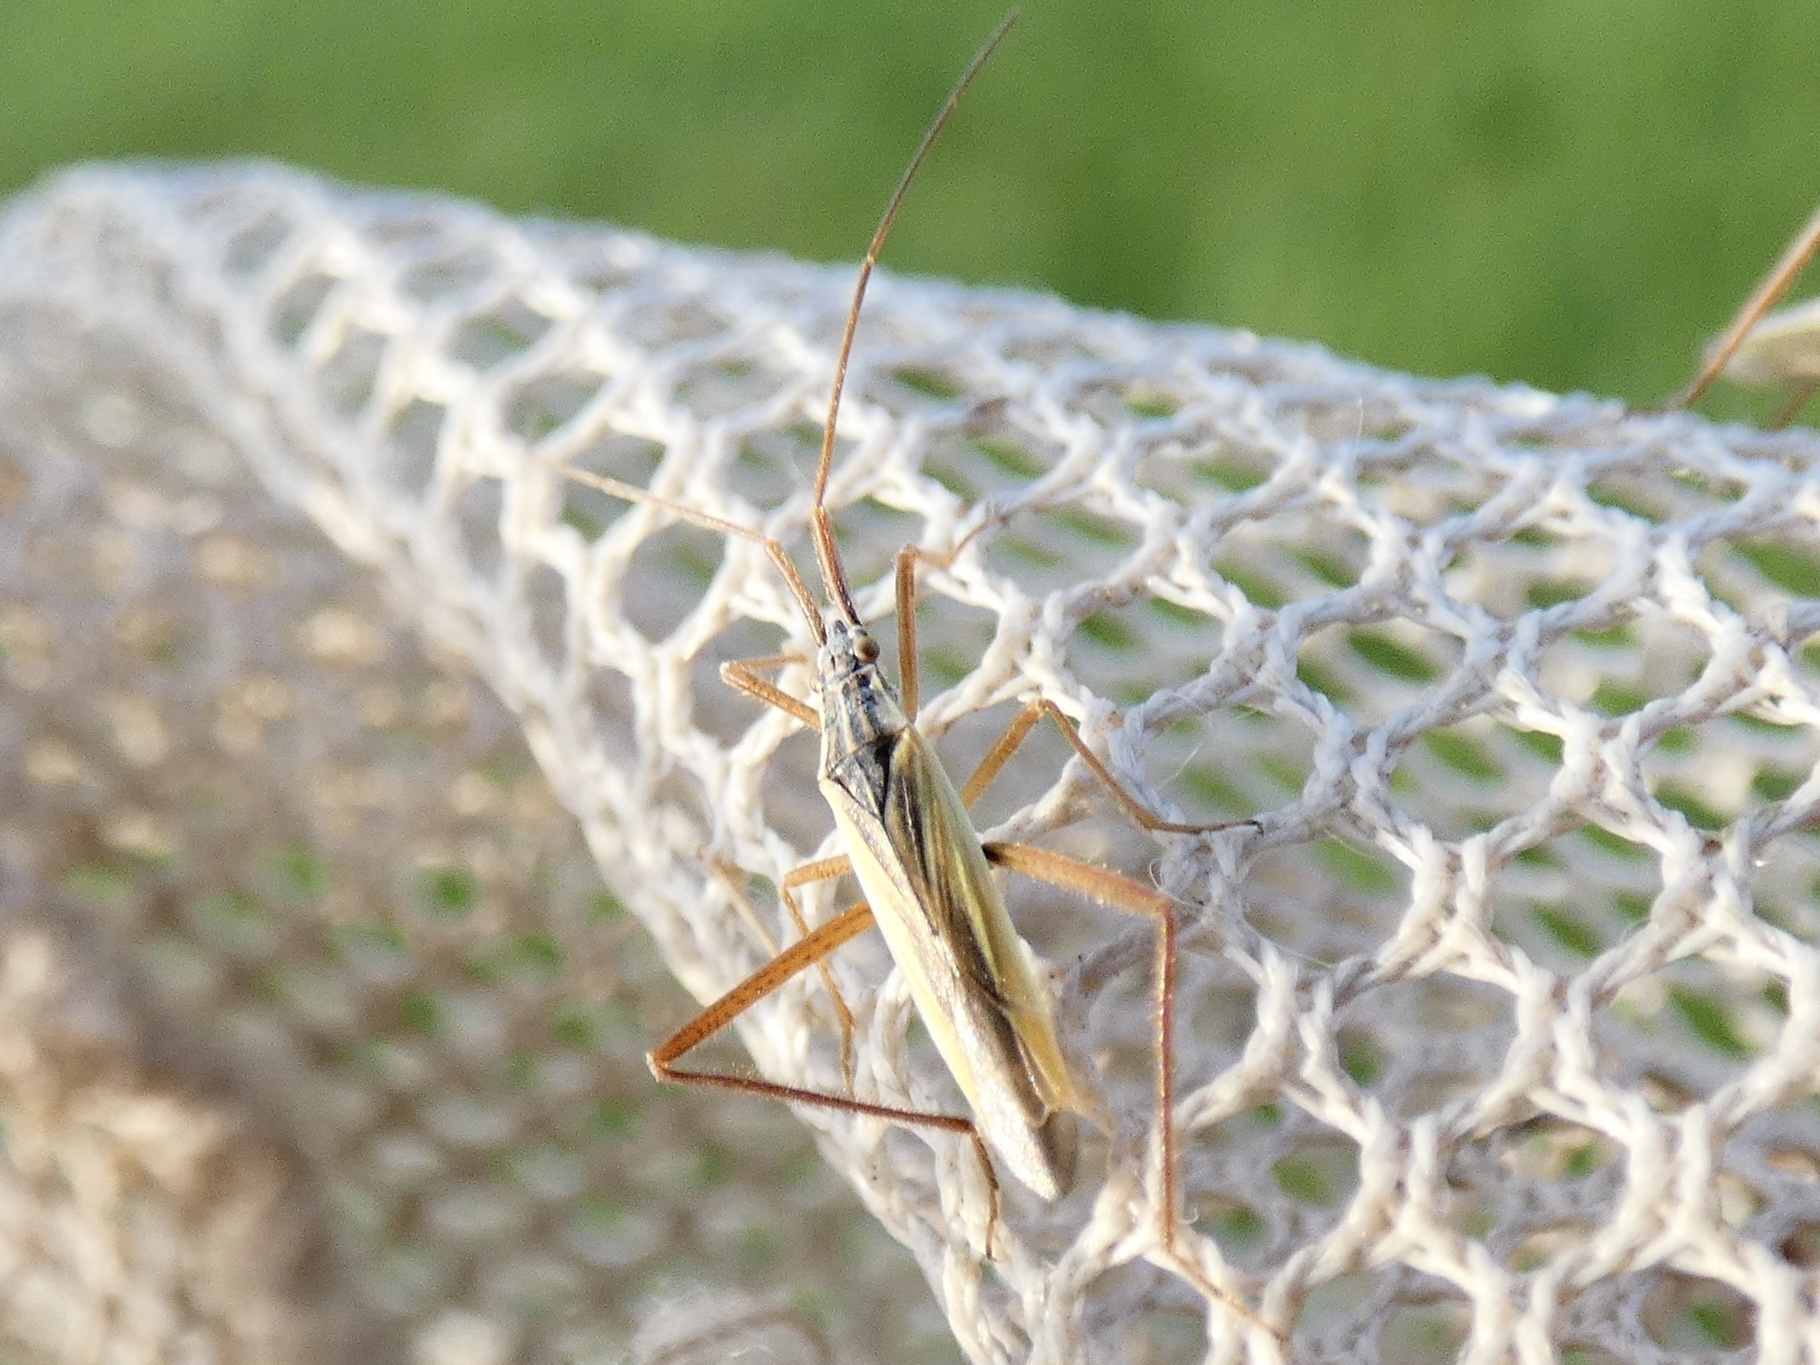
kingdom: Animalia
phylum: Arthropoda
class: Insecta
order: Hemiptera
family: Miridae
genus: Notostira
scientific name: Notostira elongata
